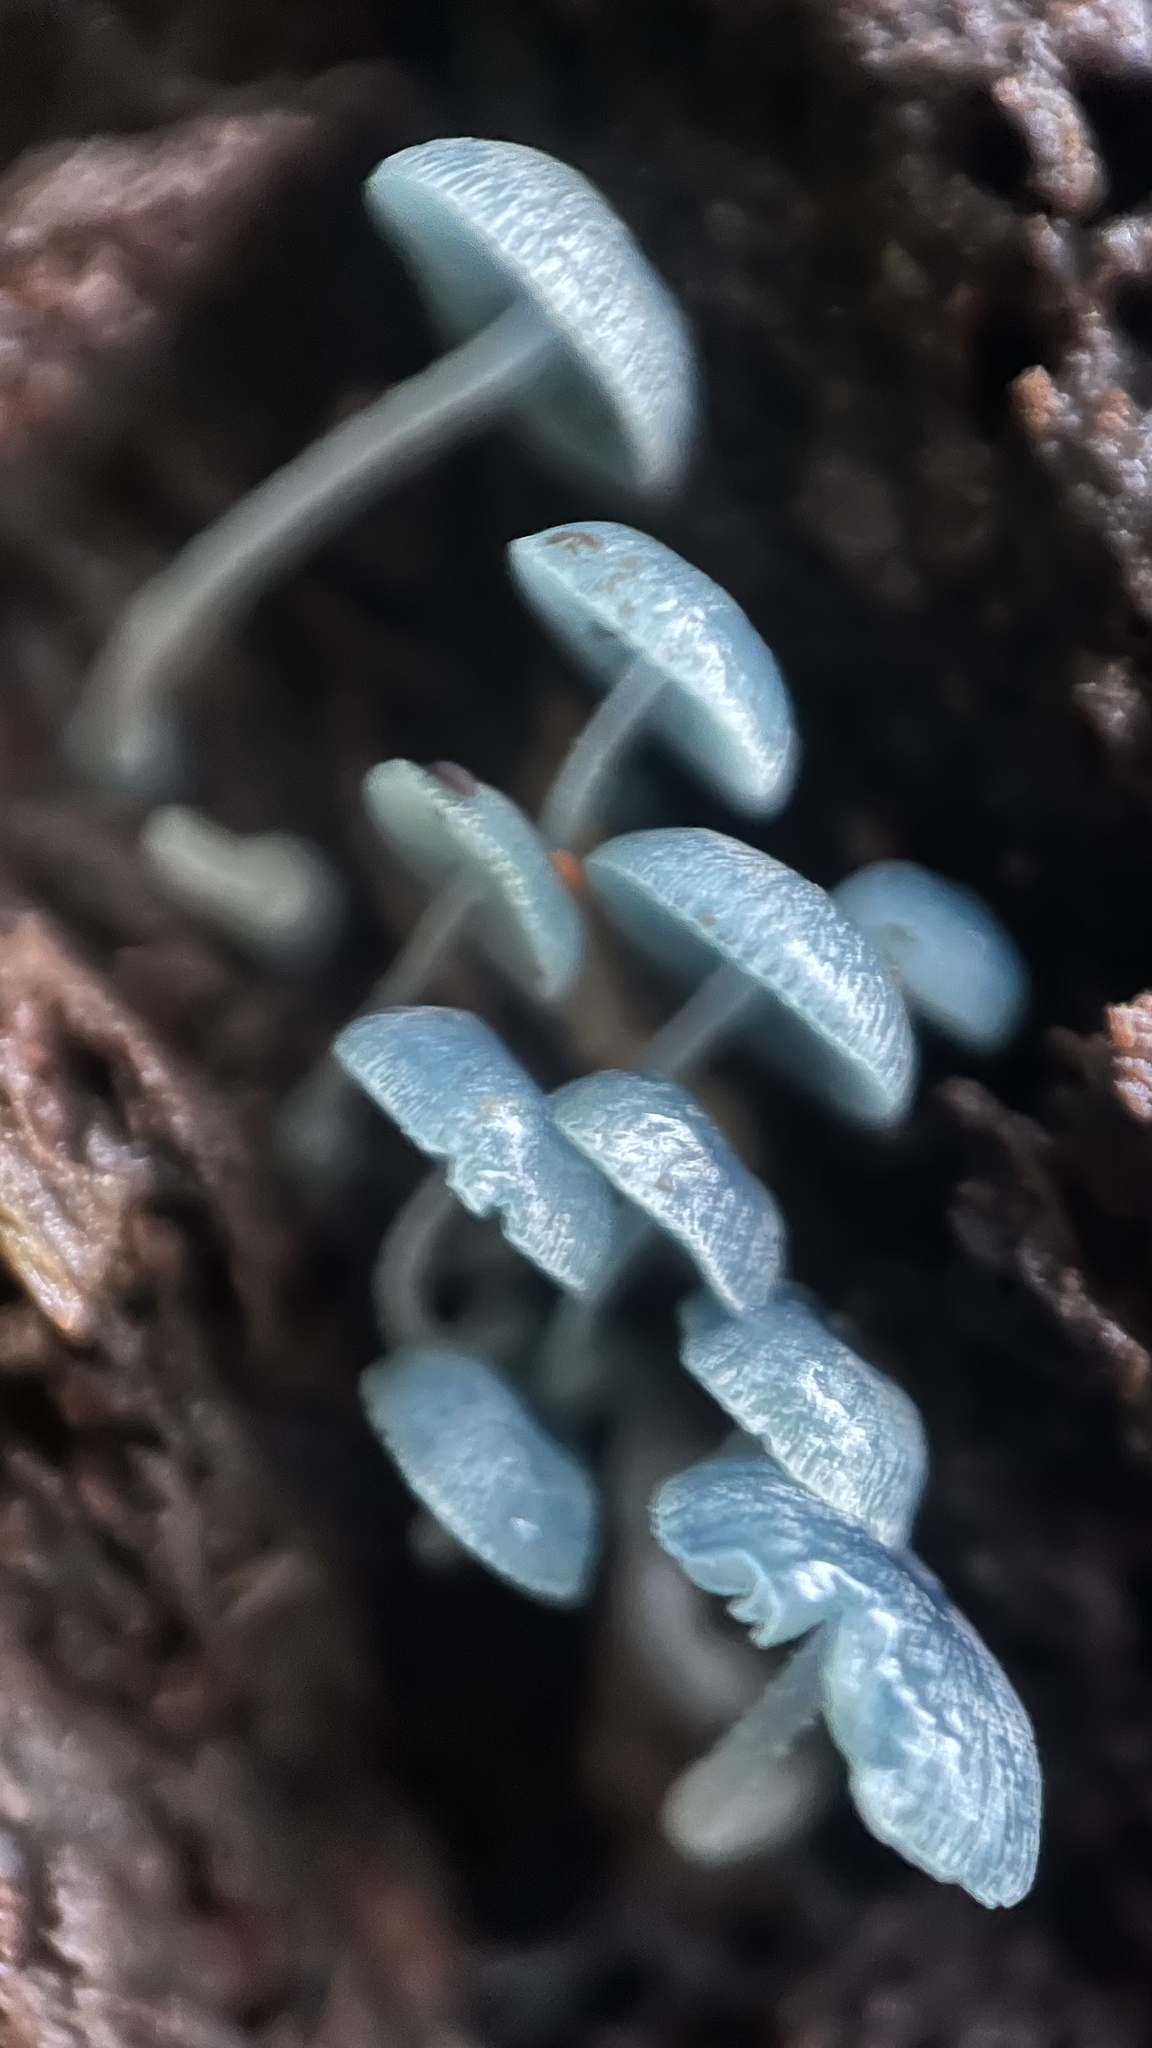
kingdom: Fungi
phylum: Basidiomycota
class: Agaricomycetes
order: Agaricales
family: Mycenaceae
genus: Mycena
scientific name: Mycena interrupta
